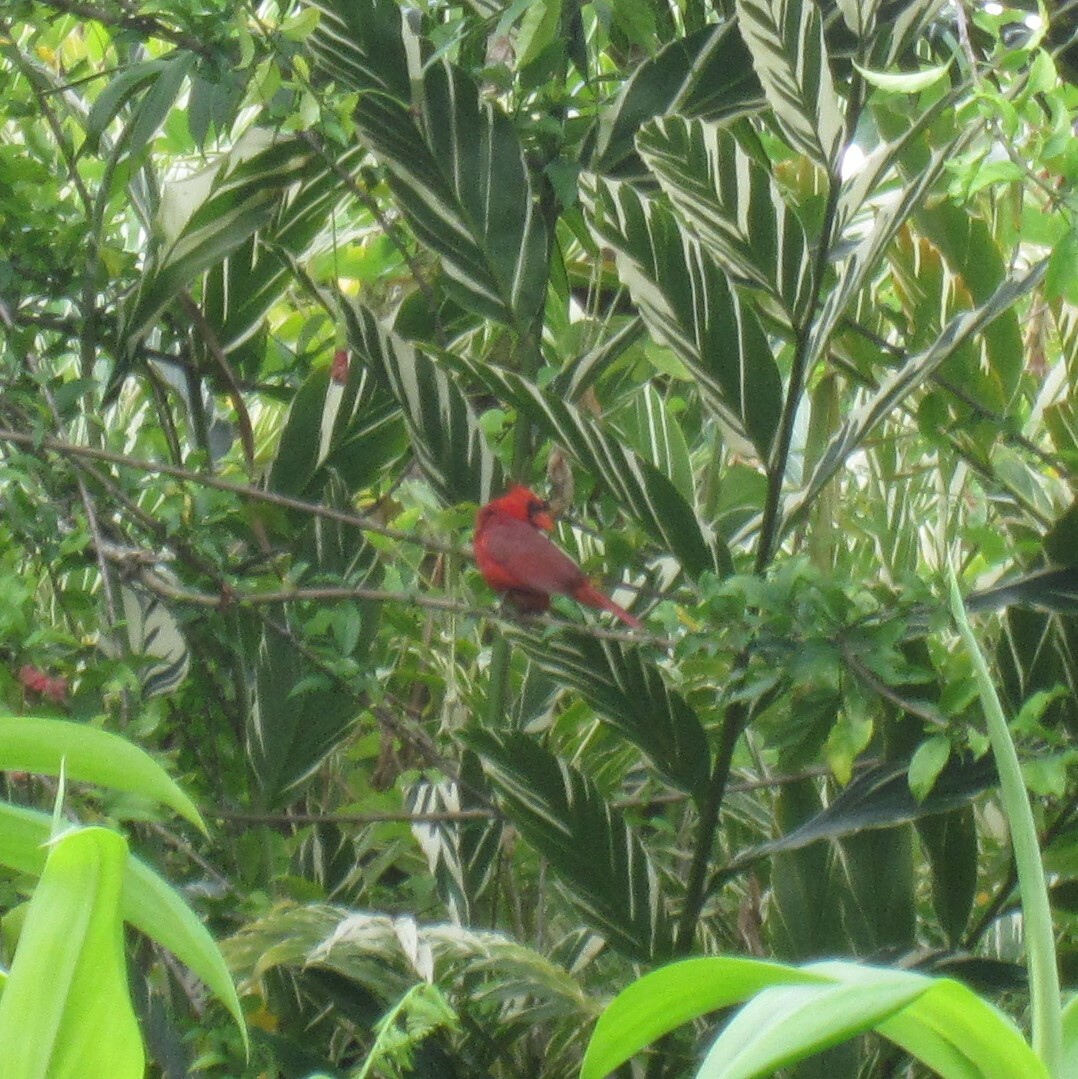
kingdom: Animalia
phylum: Chordata
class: Aves
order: Passeriformes
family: Cardinalidae
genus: Cardinalis
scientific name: Cardinalis cardinalis
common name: Northern cardinal
